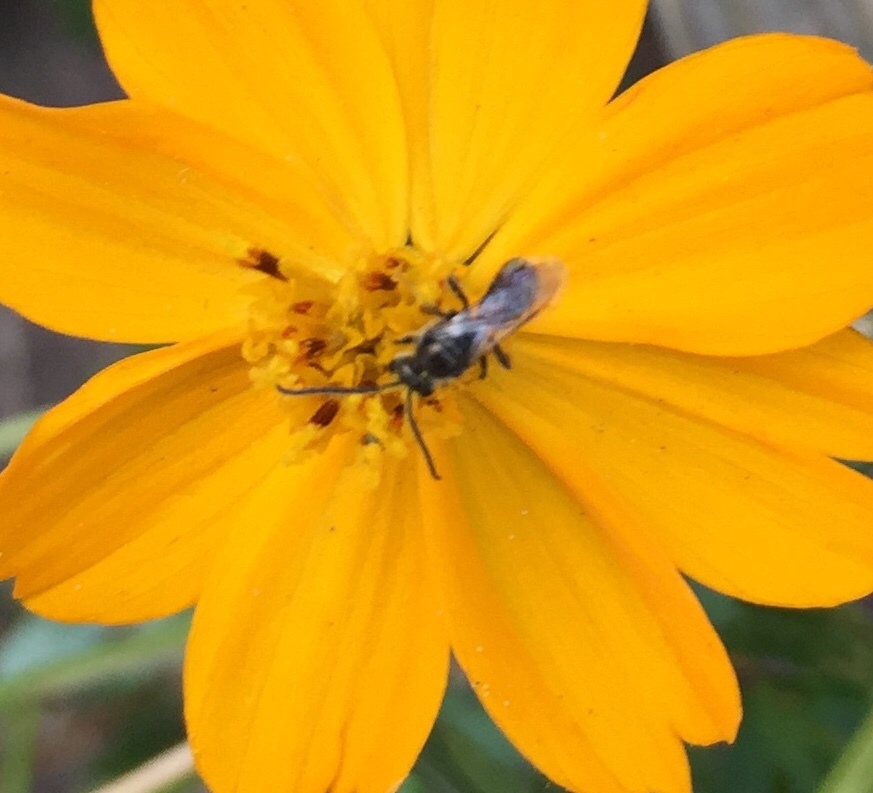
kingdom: Animalia
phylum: Arthropoda
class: Insecta
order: Hymenoptera
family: Halictidae
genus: Dialictus
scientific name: Dialictus
